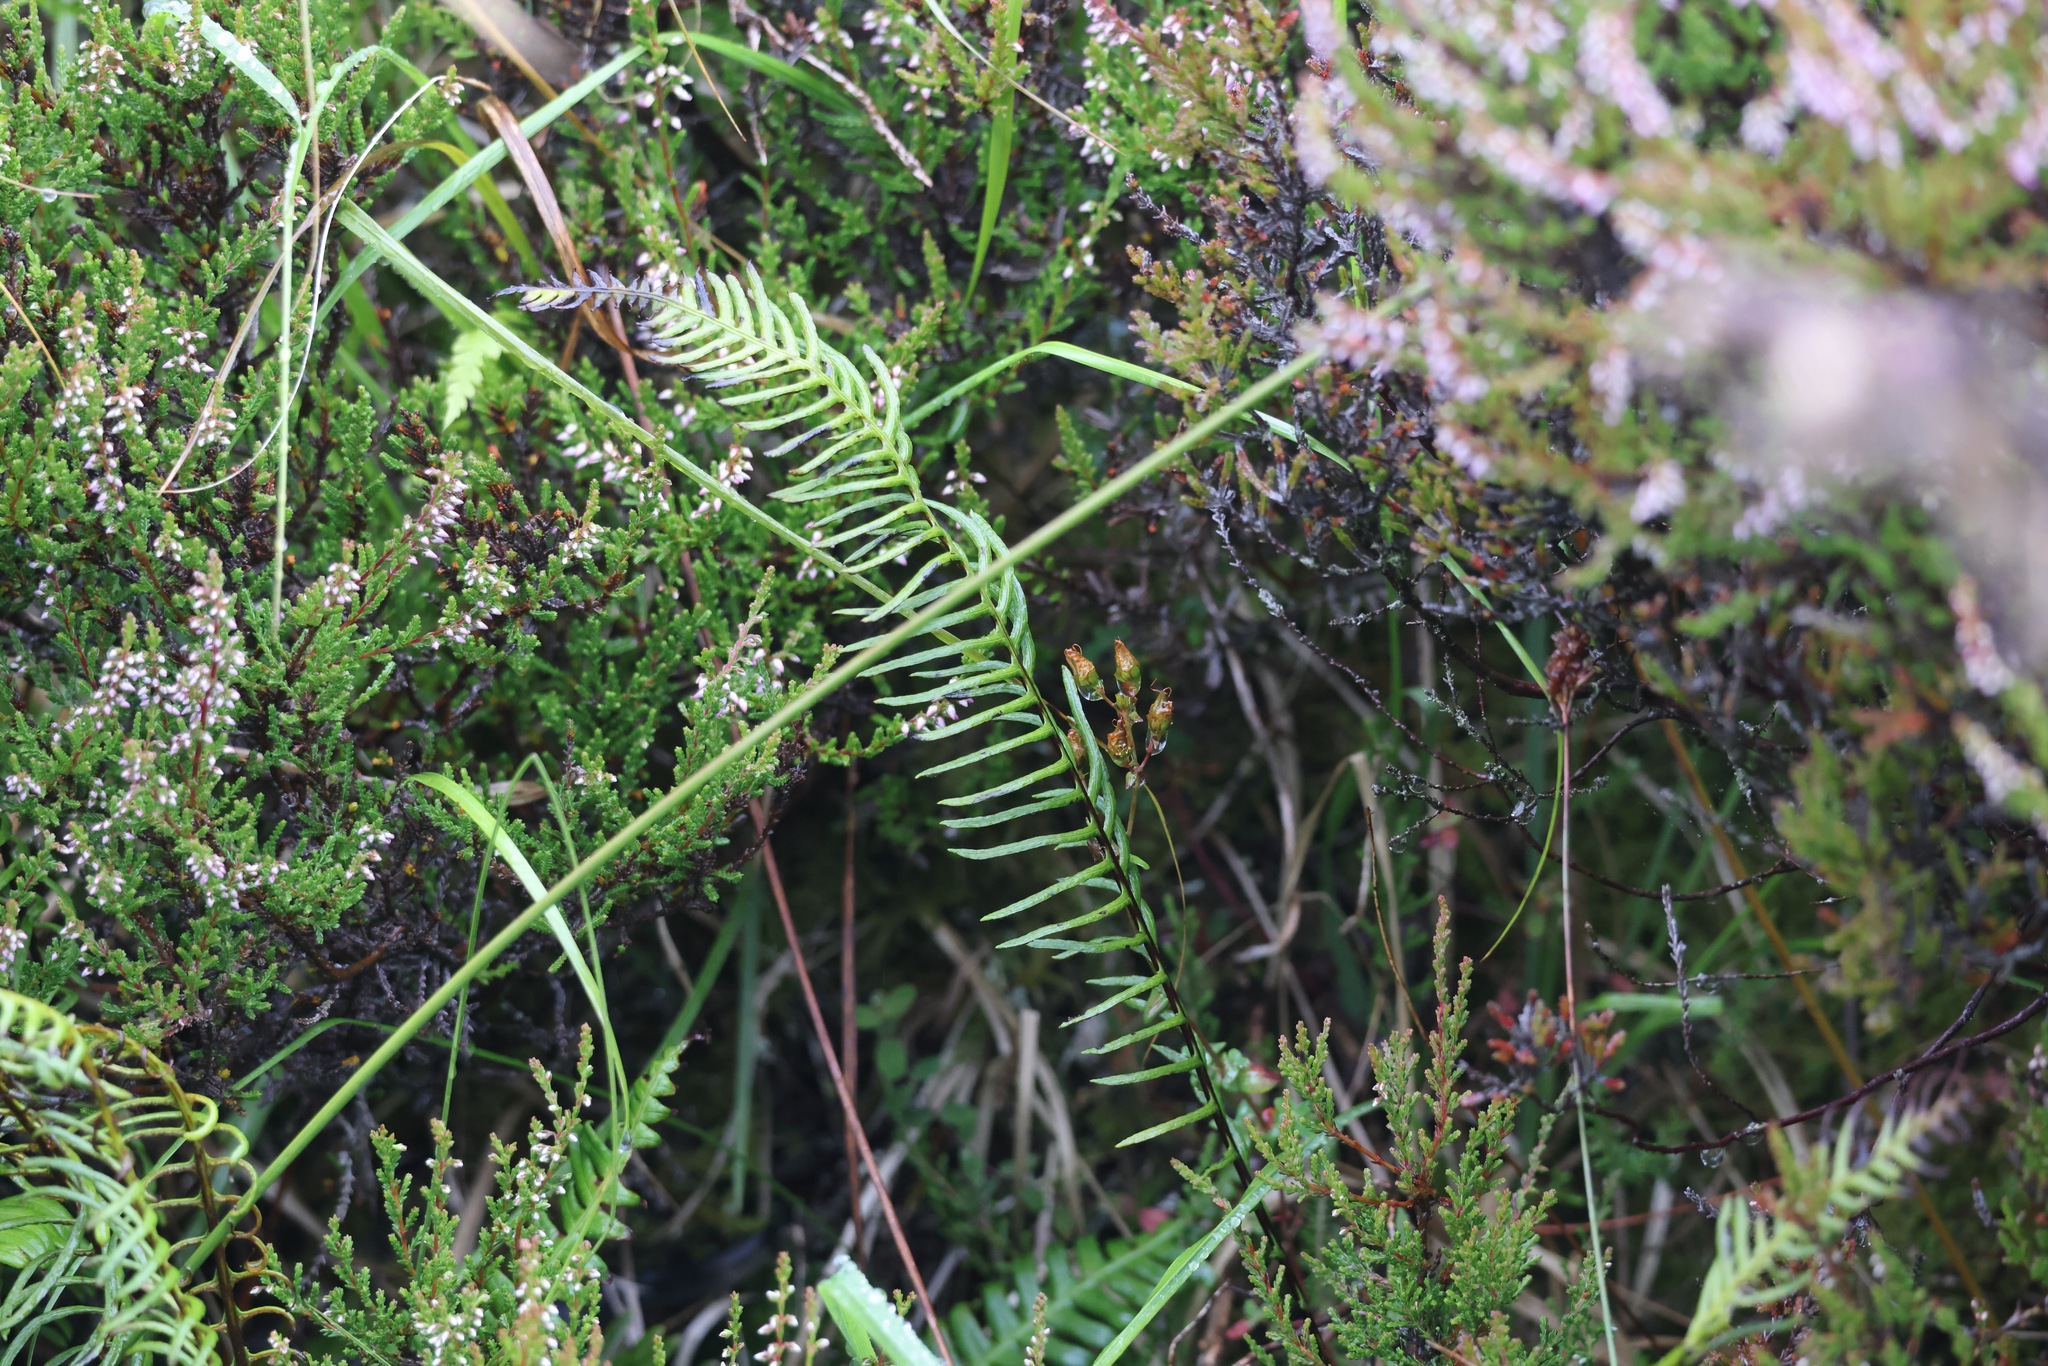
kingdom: Plantae
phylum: Tracheophyta
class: Polypodiopsida
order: Polypodiales
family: Blechnaceae
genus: Struthiopteris
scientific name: Struthiopteris spicant
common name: Deer fern
